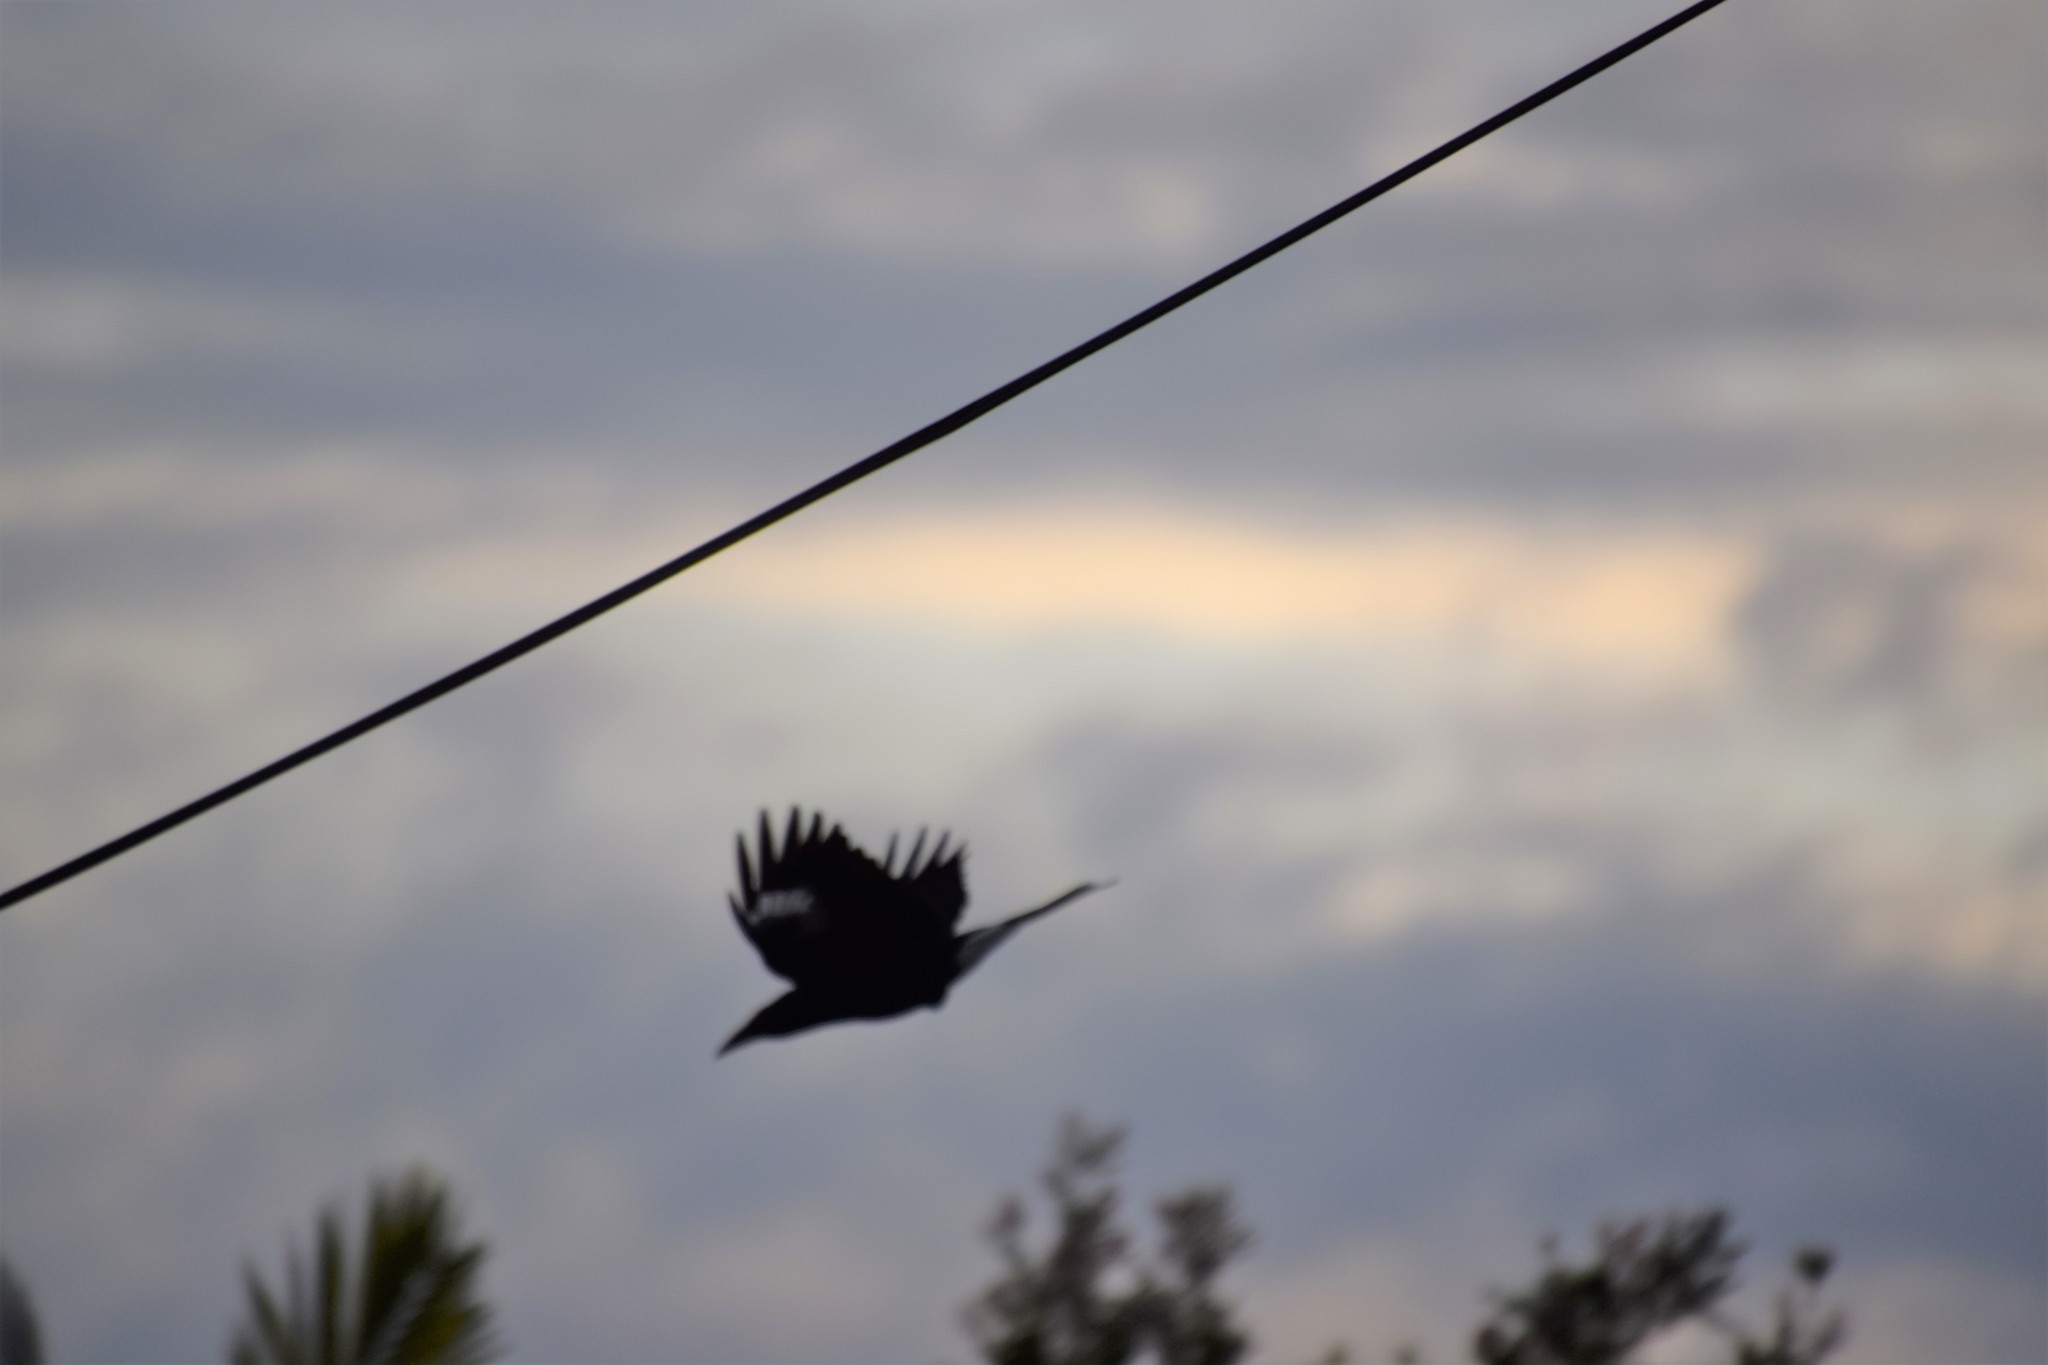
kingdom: Animalia
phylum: Chordata
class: Aves
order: Passeriformes
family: Cracticidae
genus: Strepera
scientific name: Strepera graculina
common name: Pied currawong
